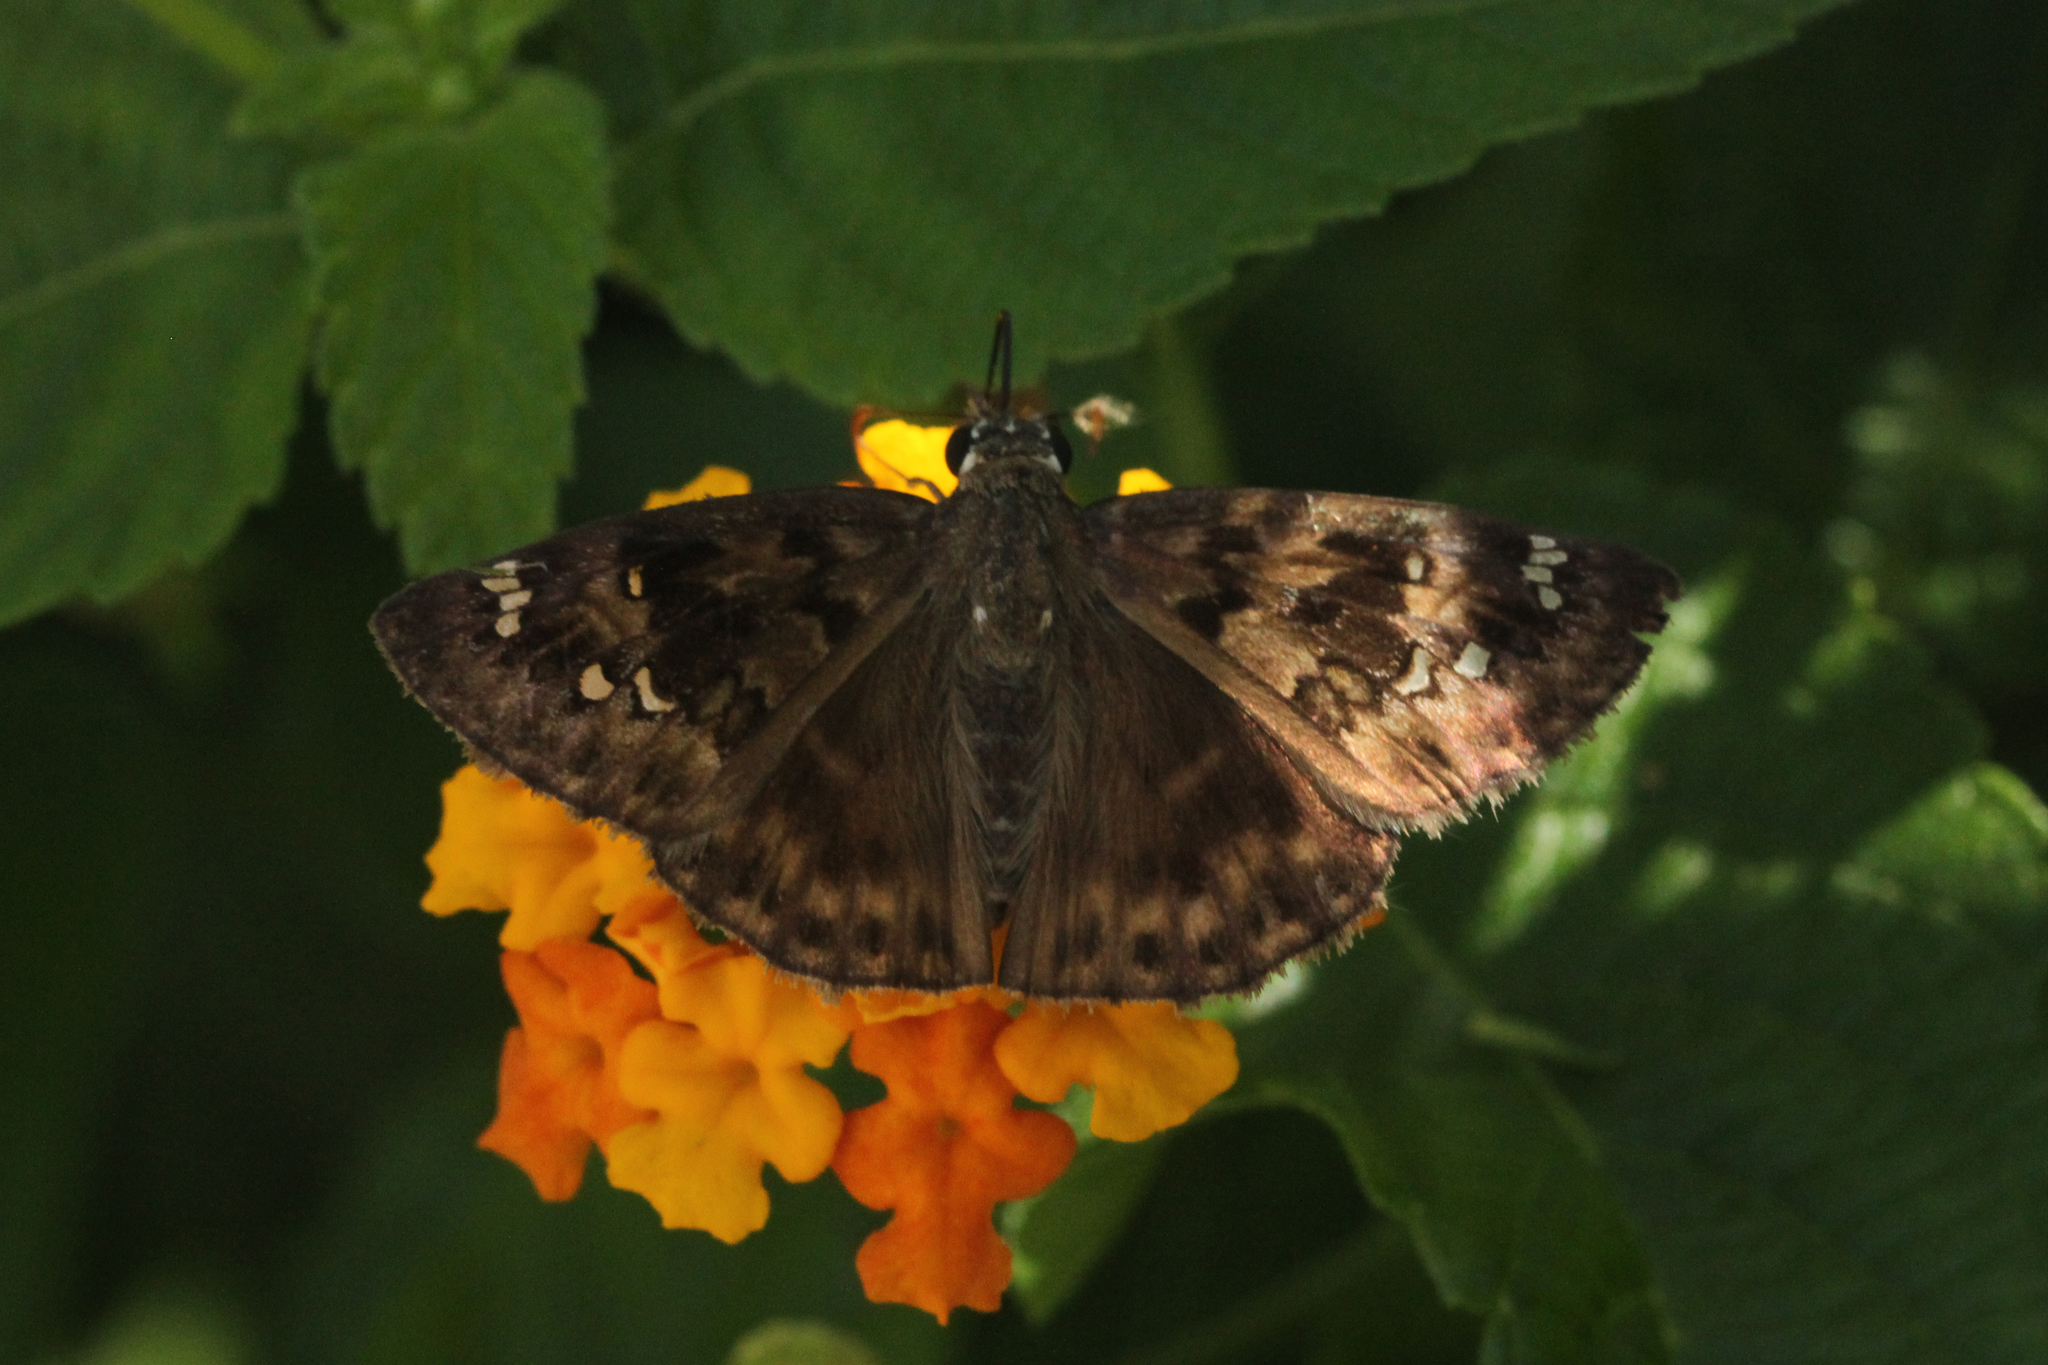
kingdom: Animalia
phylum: Arthropoda
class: Insecta
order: Lepidoptera
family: Hesperiidae
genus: Erynnis
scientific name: Erynnis horatius
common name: Horace's duskywing
